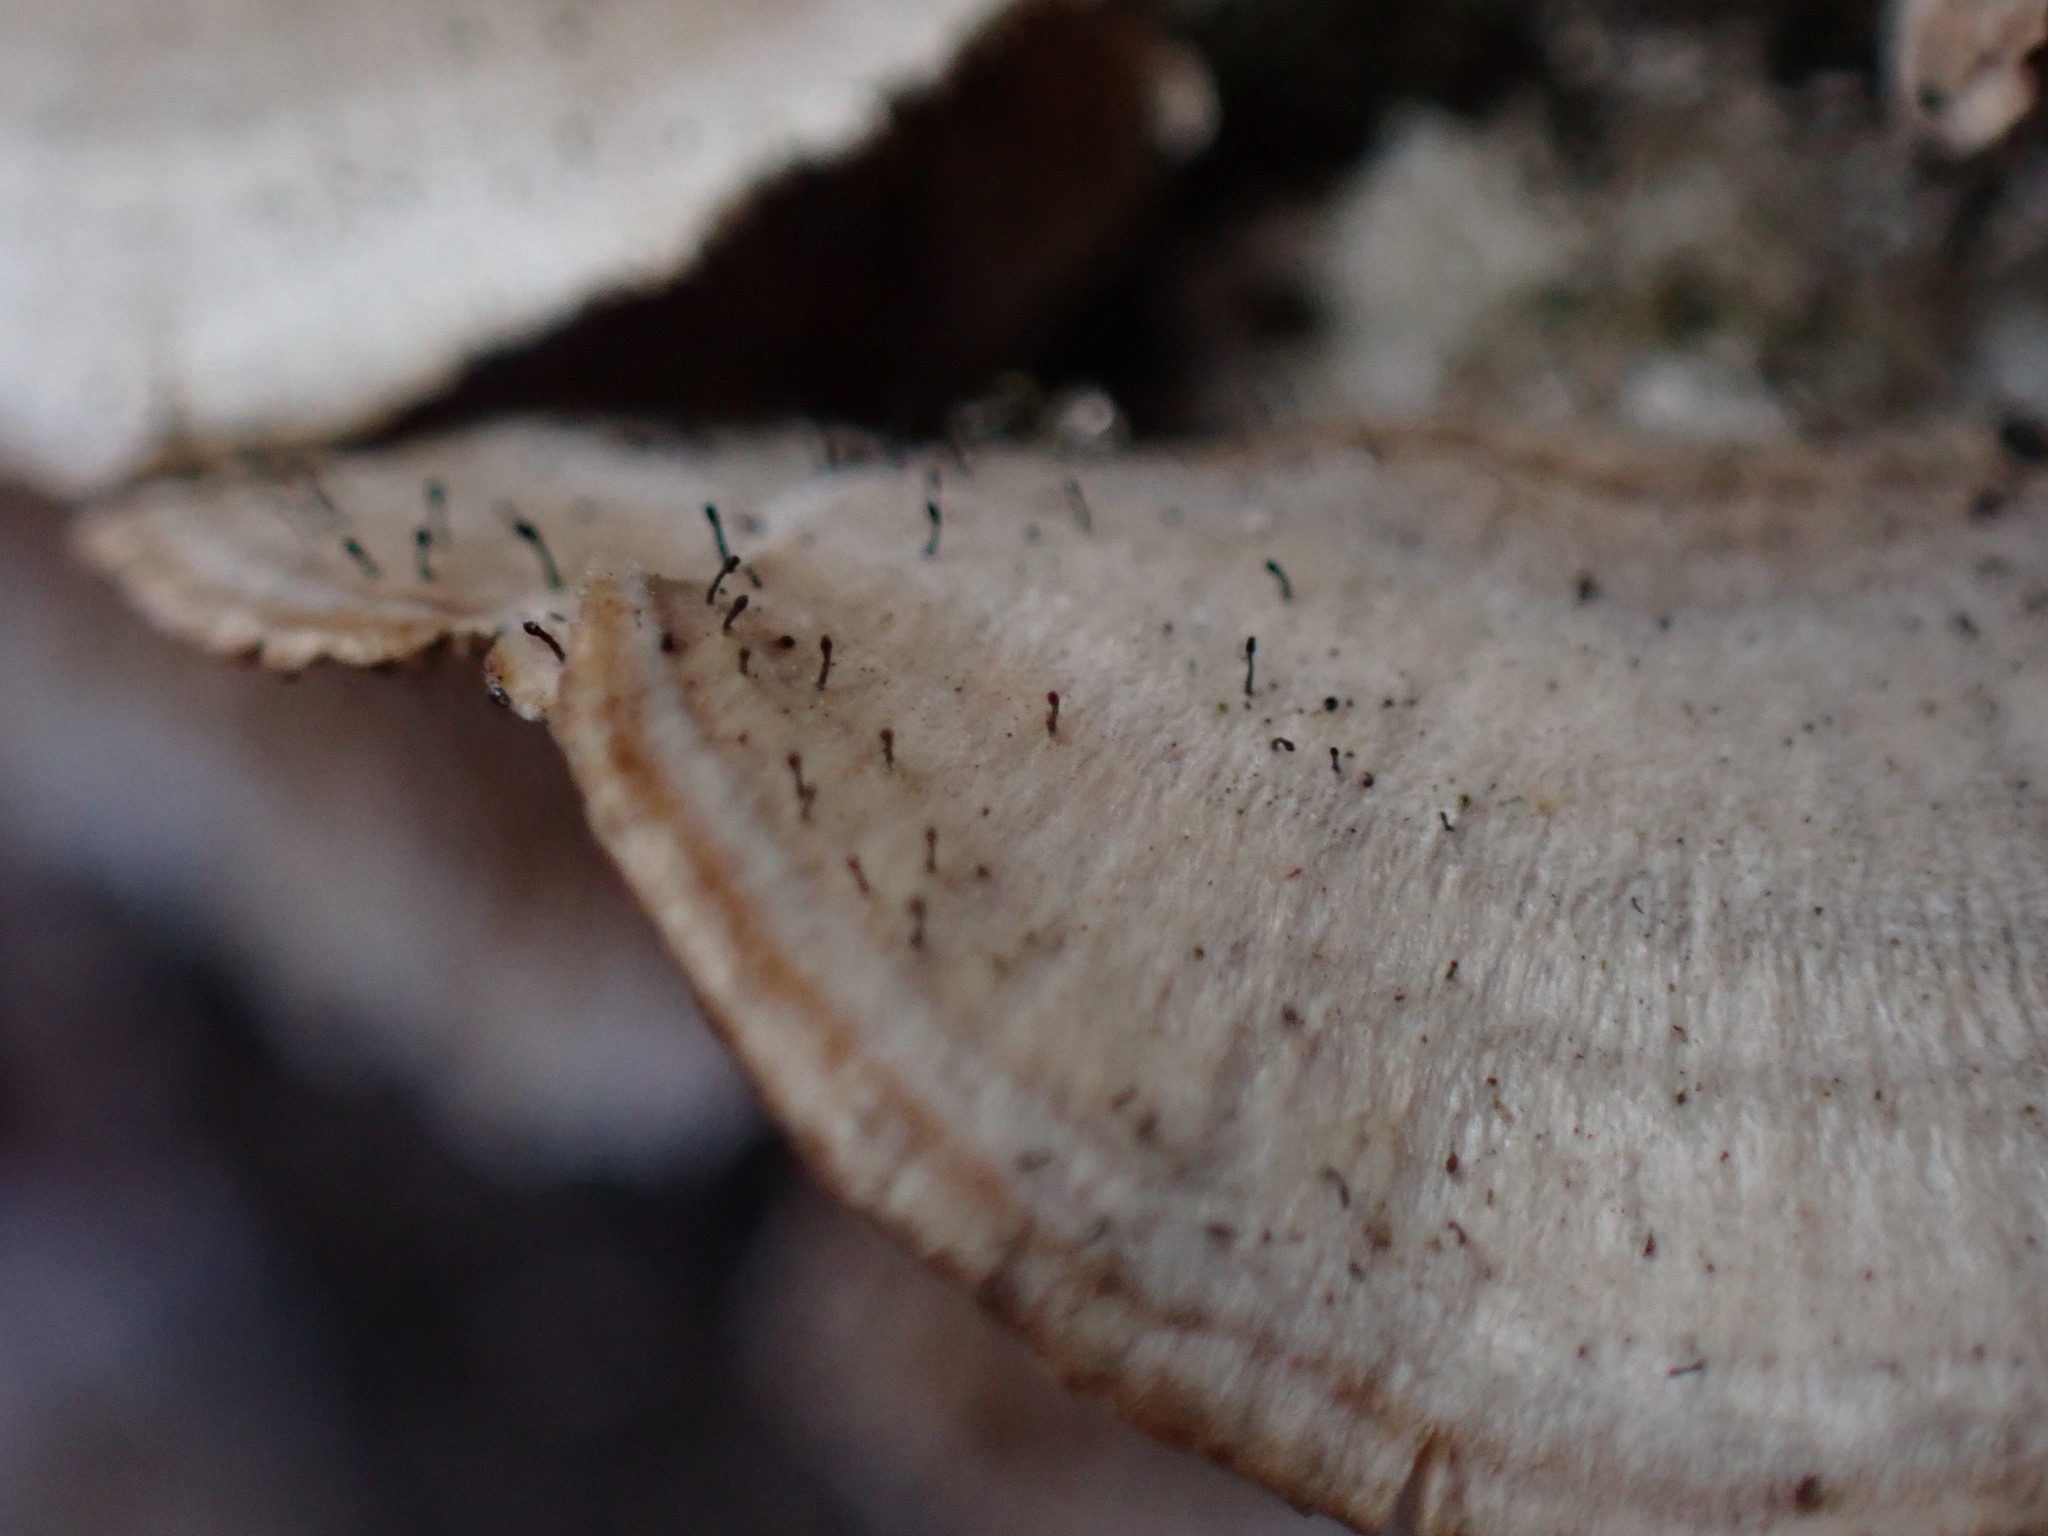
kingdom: Fungi
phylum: Ascomycota
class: Eurotiomycetes
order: Mycocaliciales
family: Mycocaliciaceae
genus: Phaeocalicium
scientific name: Phaeocalicium polyporaeum
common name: Fairy pins
